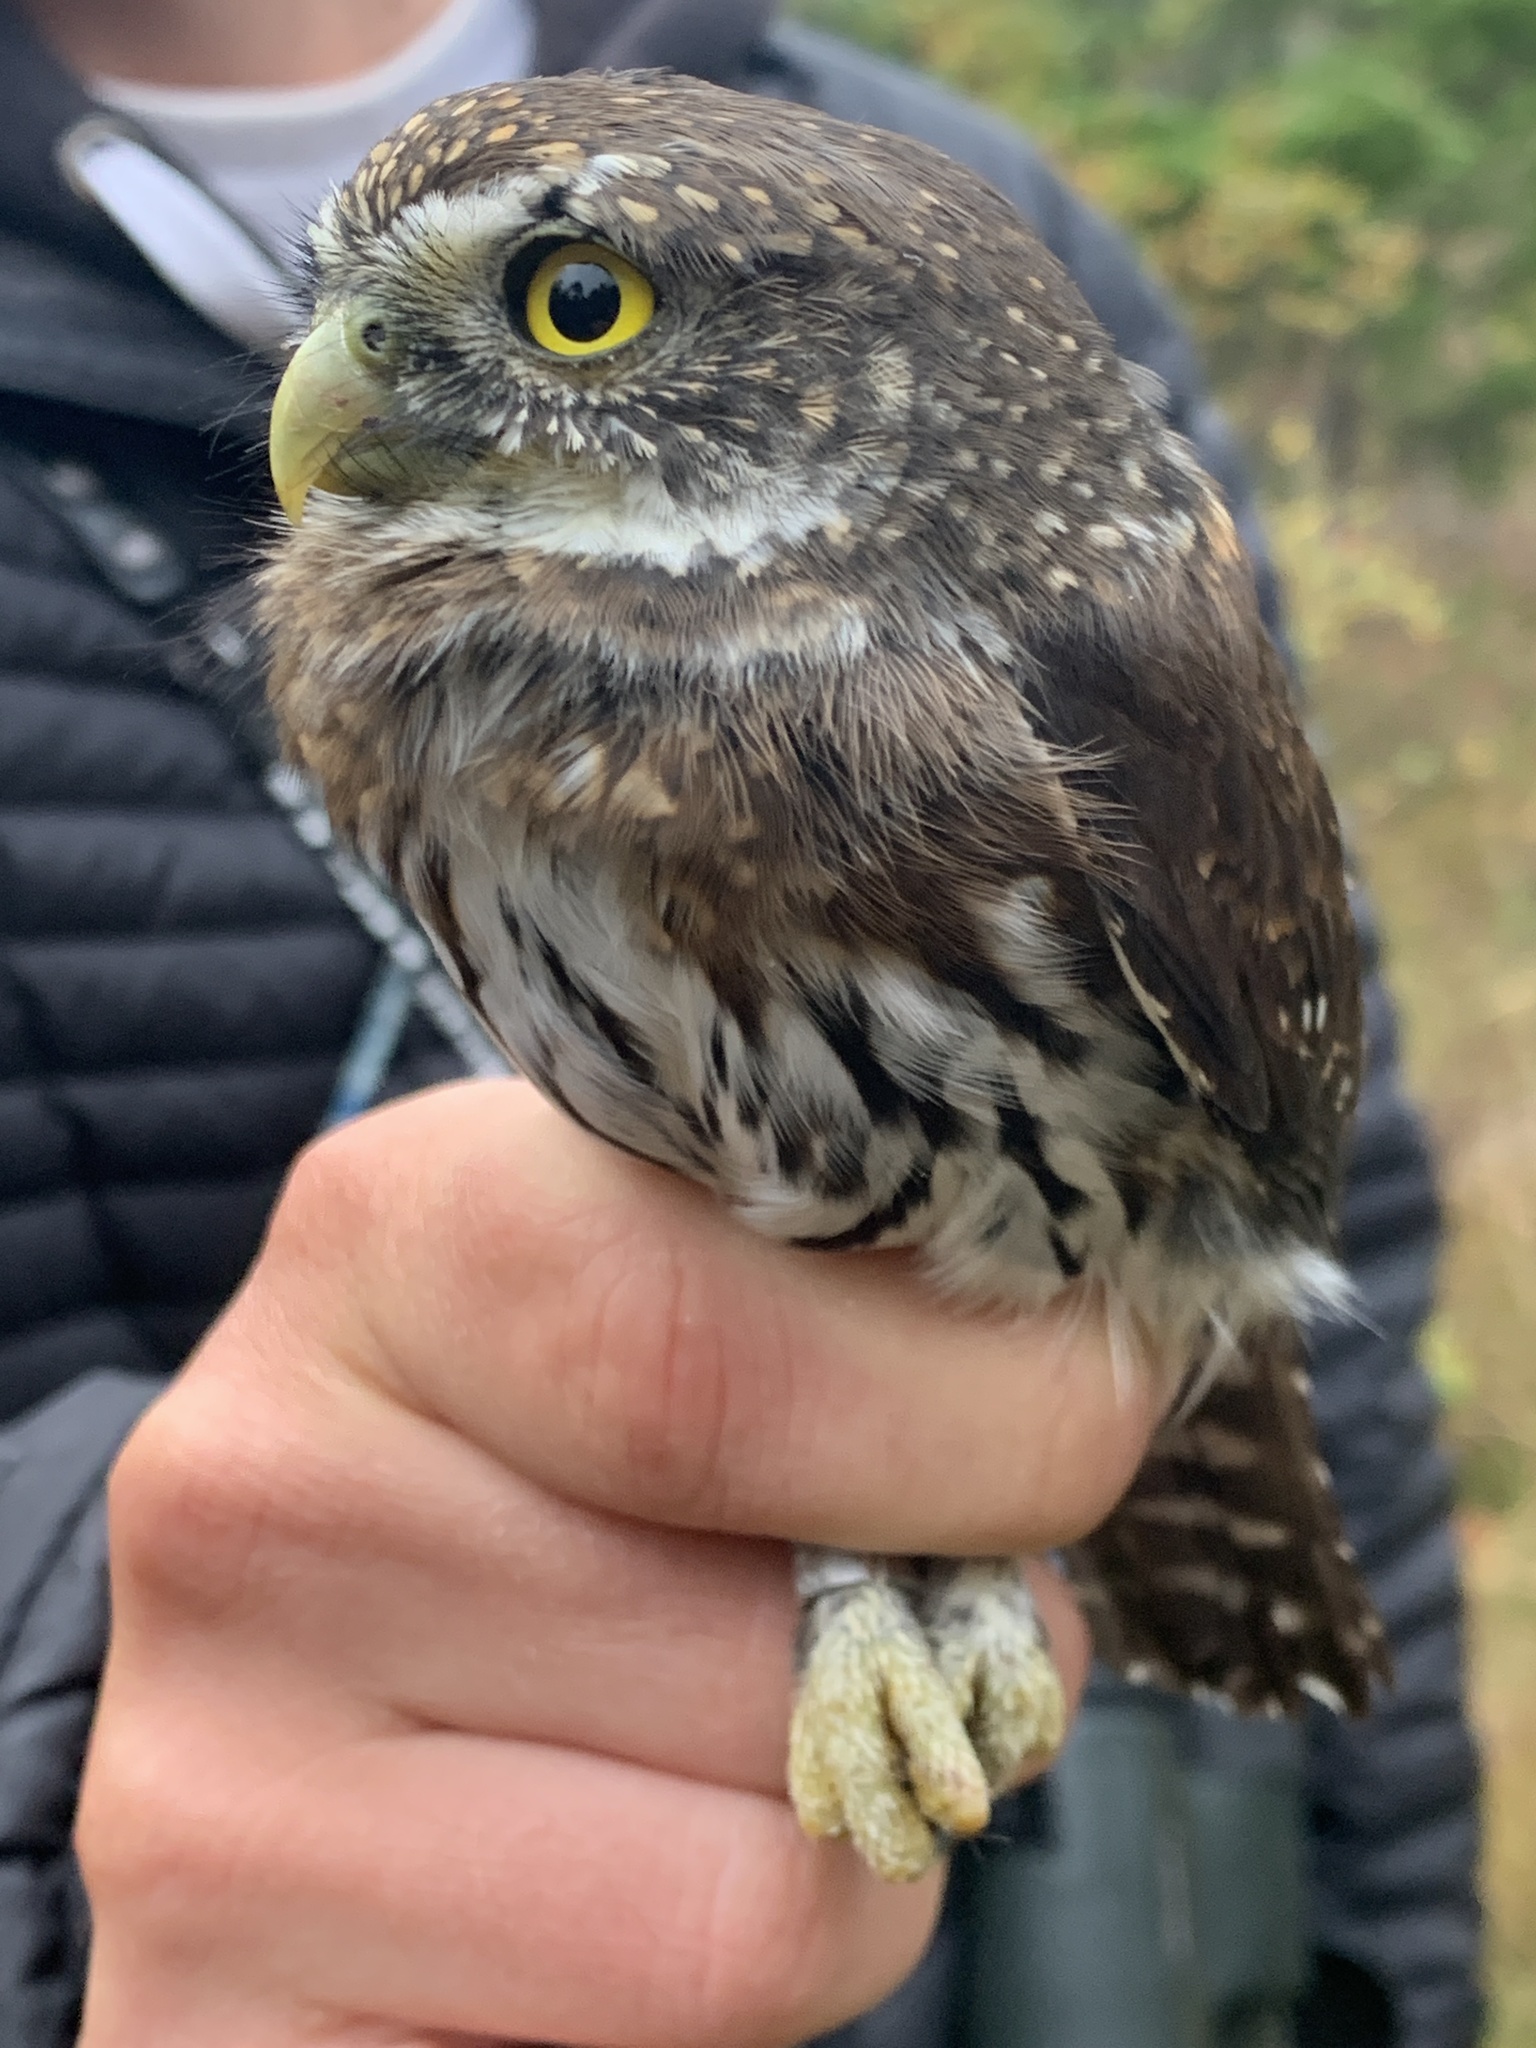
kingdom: Animalia
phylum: Chordata
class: Aves
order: Strigiformes
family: Strigidae
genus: Glaucidium
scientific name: Glaucidium gnoma
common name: Northern pygmy-owl
